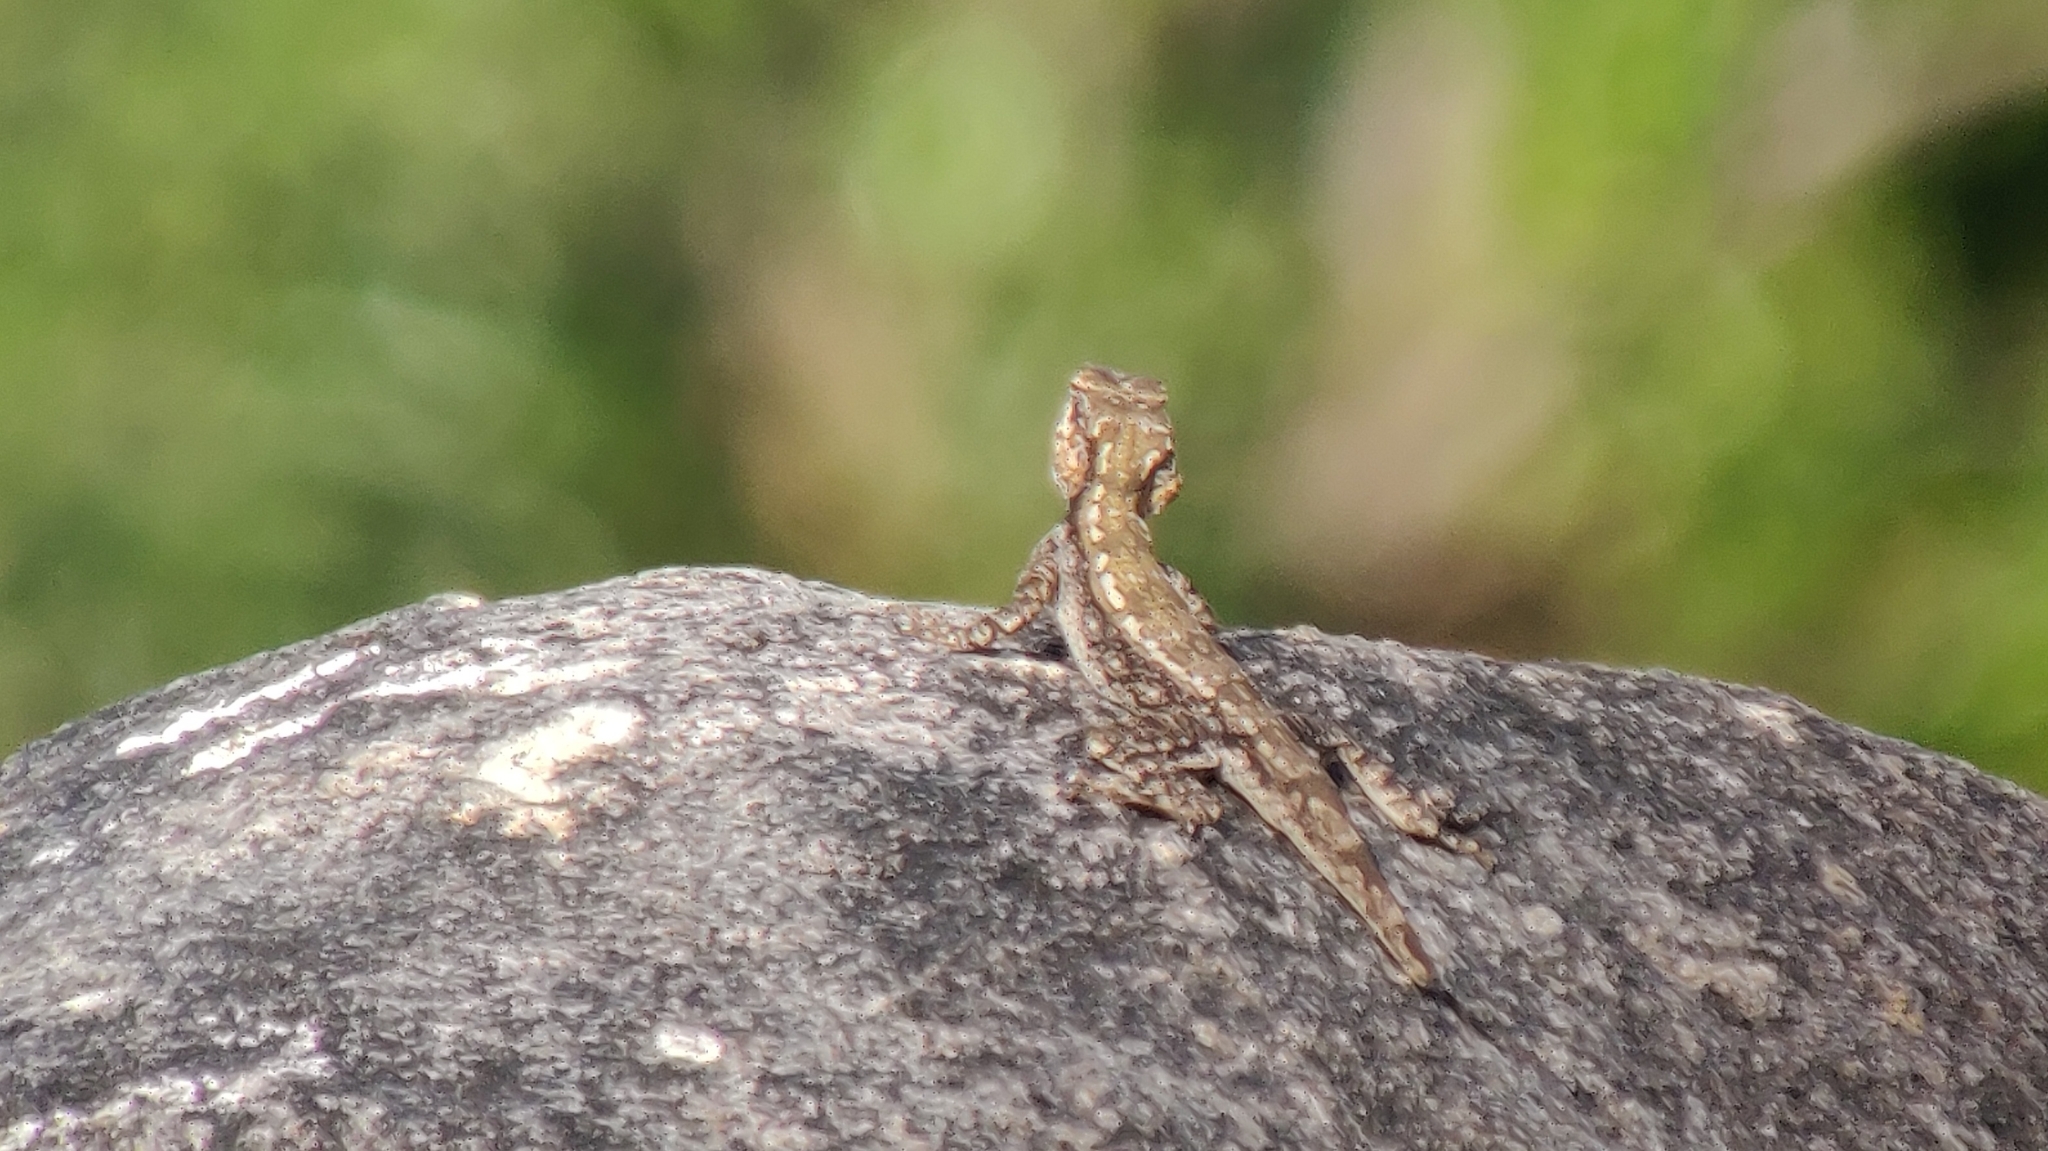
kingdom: Animalia
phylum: Chordata
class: Squamata
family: Agamidae
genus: Psammophilus
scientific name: Psammophilus blanfordanus
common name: Blanford's rock agama
